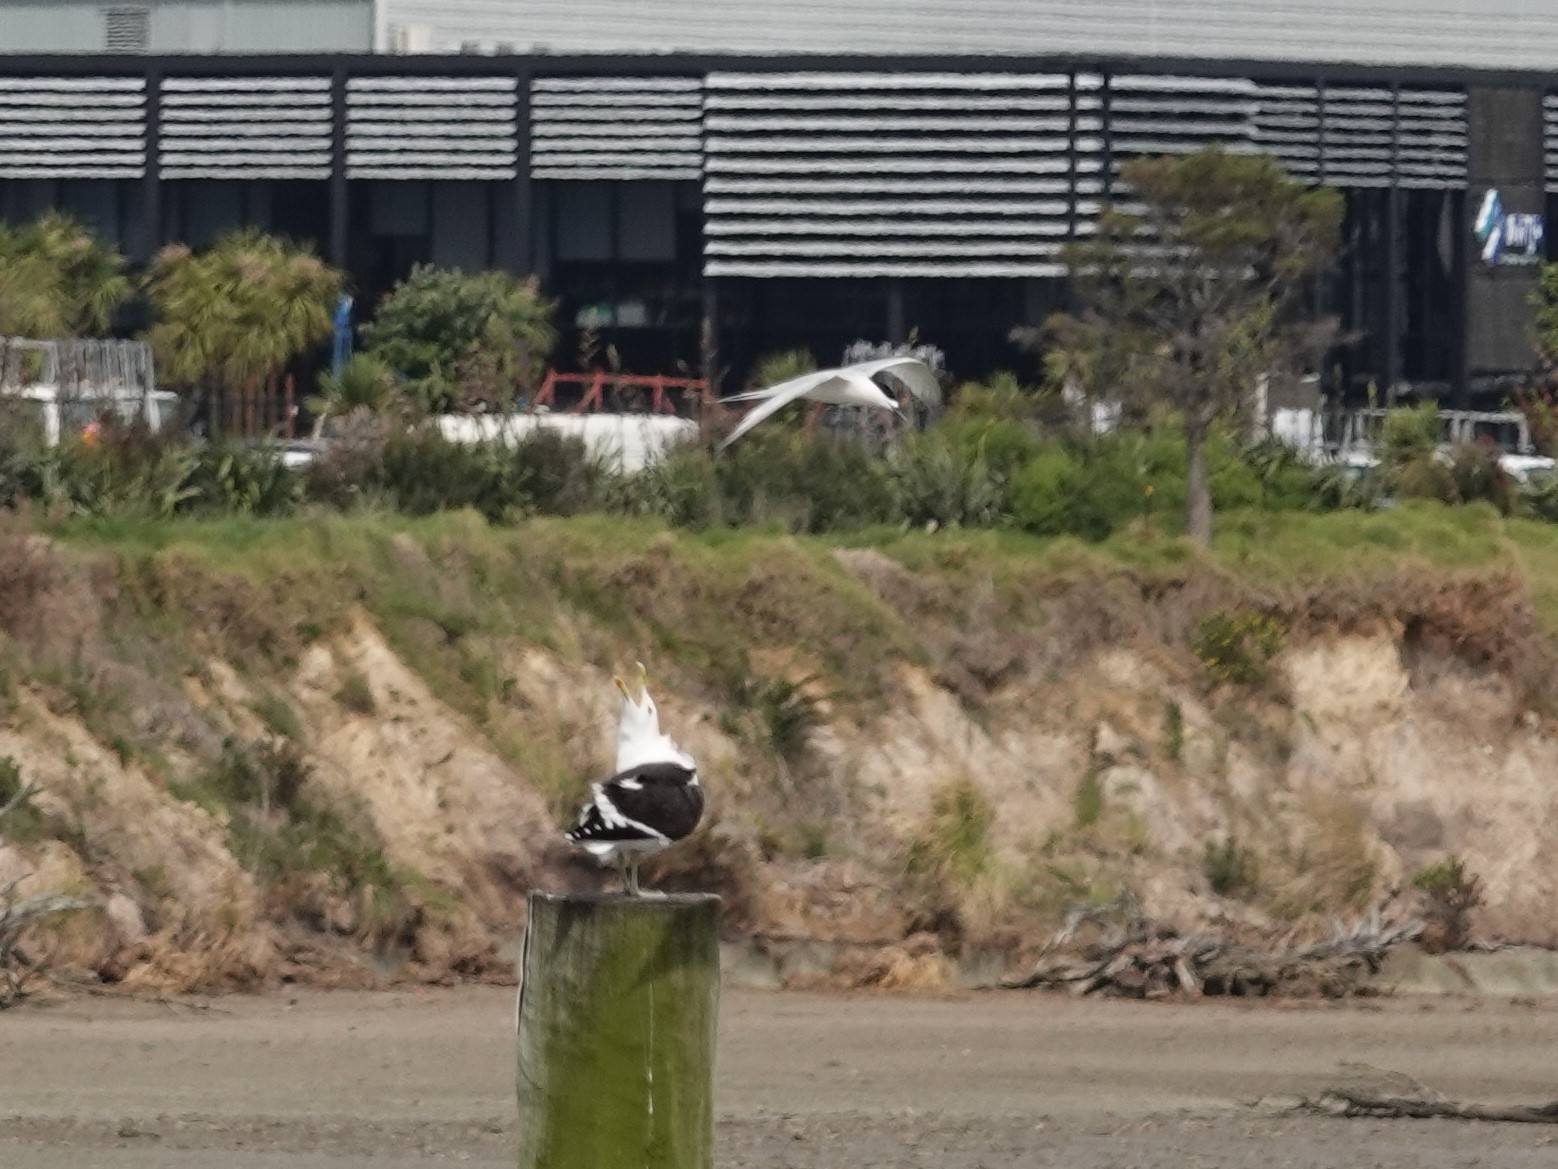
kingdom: Animalia
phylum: Chordata
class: Aves
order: Charadriiformes
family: Laridae
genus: Sterna
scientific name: Sterna striata
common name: White-fronted tern
